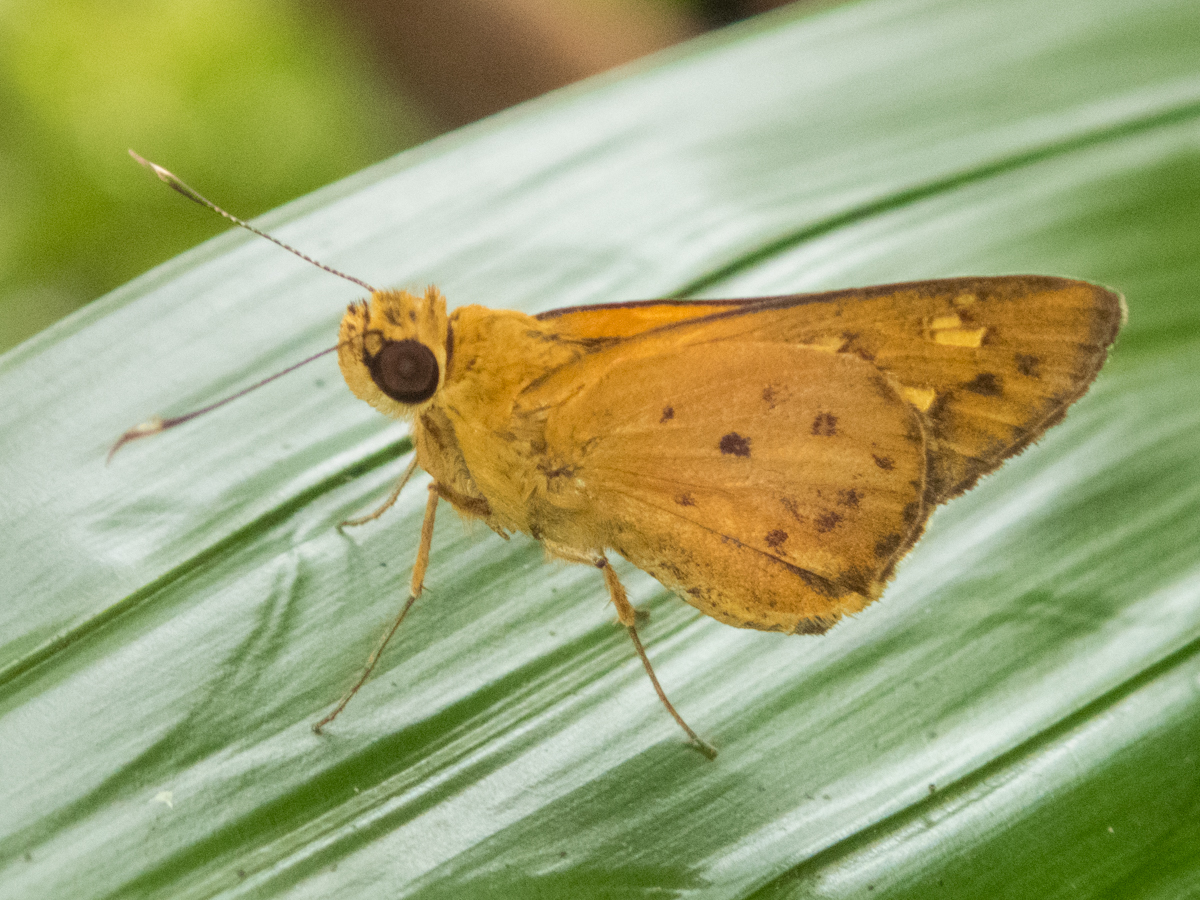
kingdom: Animalia
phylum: Arthropoda
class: Insecta
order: Lepidoptera
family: Hesperiidae
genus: Salanoemia
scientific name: Salanoemia tavoyana
